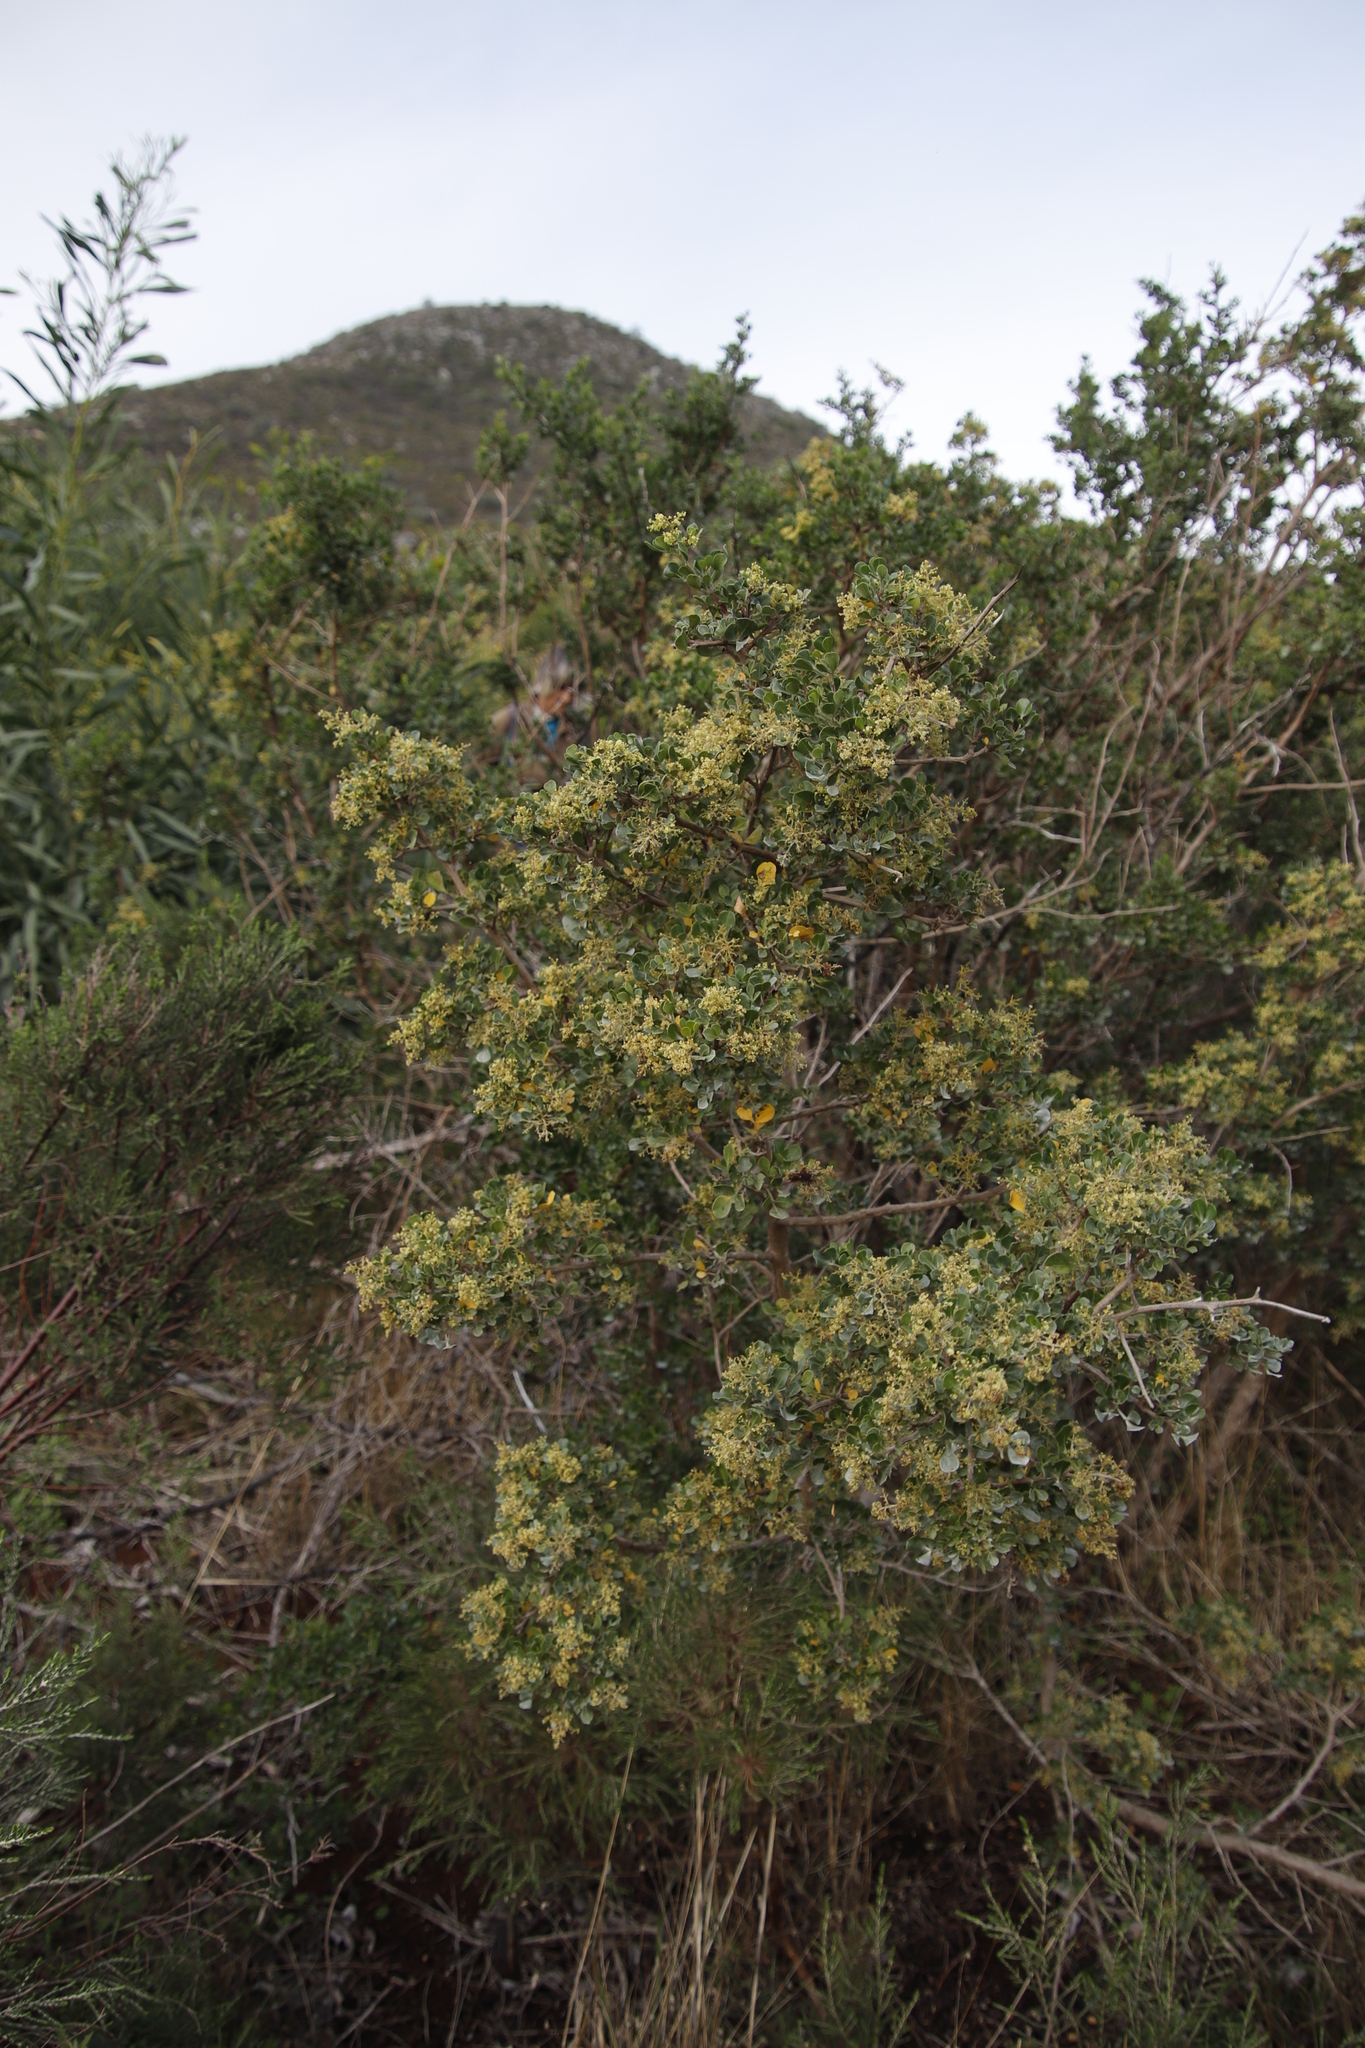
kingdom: Plantae
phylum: Tracheophyta
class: Magnoliopsida
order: Sapindales
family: Anacardiaceae
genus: Searsia
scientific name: Searsia glauca
